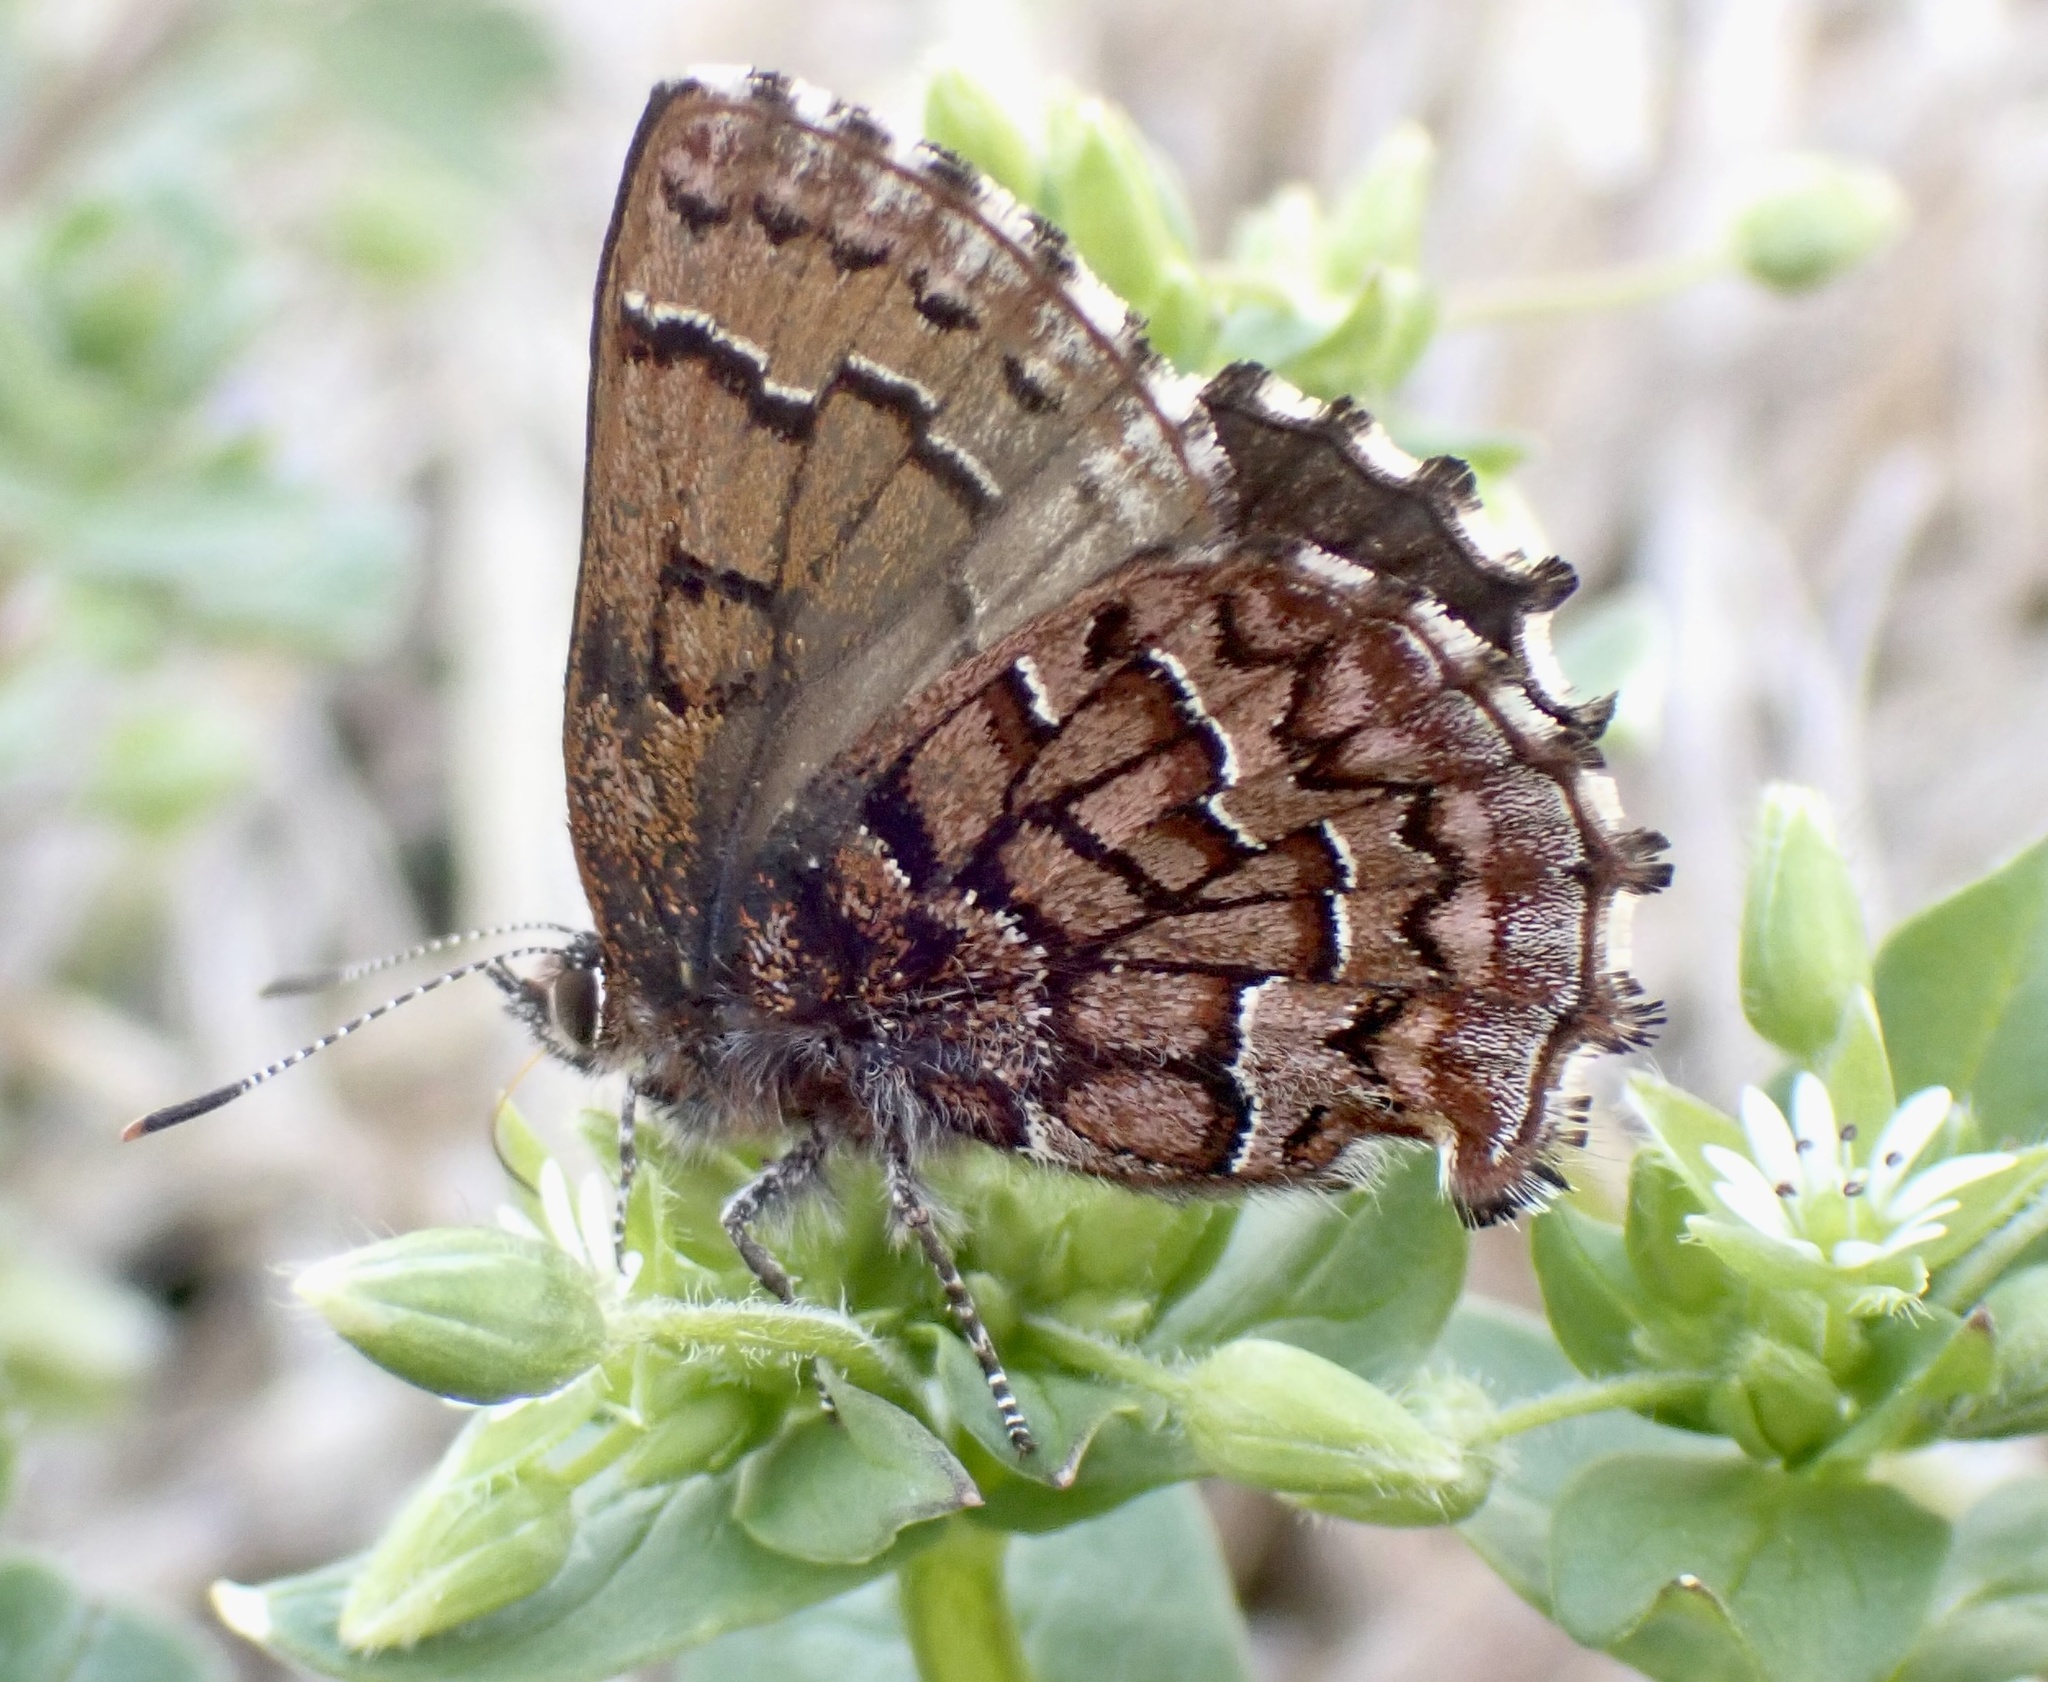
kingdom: Animalia
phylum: Arthropoda
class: Insecta
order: Lepidoptera
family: Lycaenidae
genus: Incisalia
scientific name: Incisalia niphon
